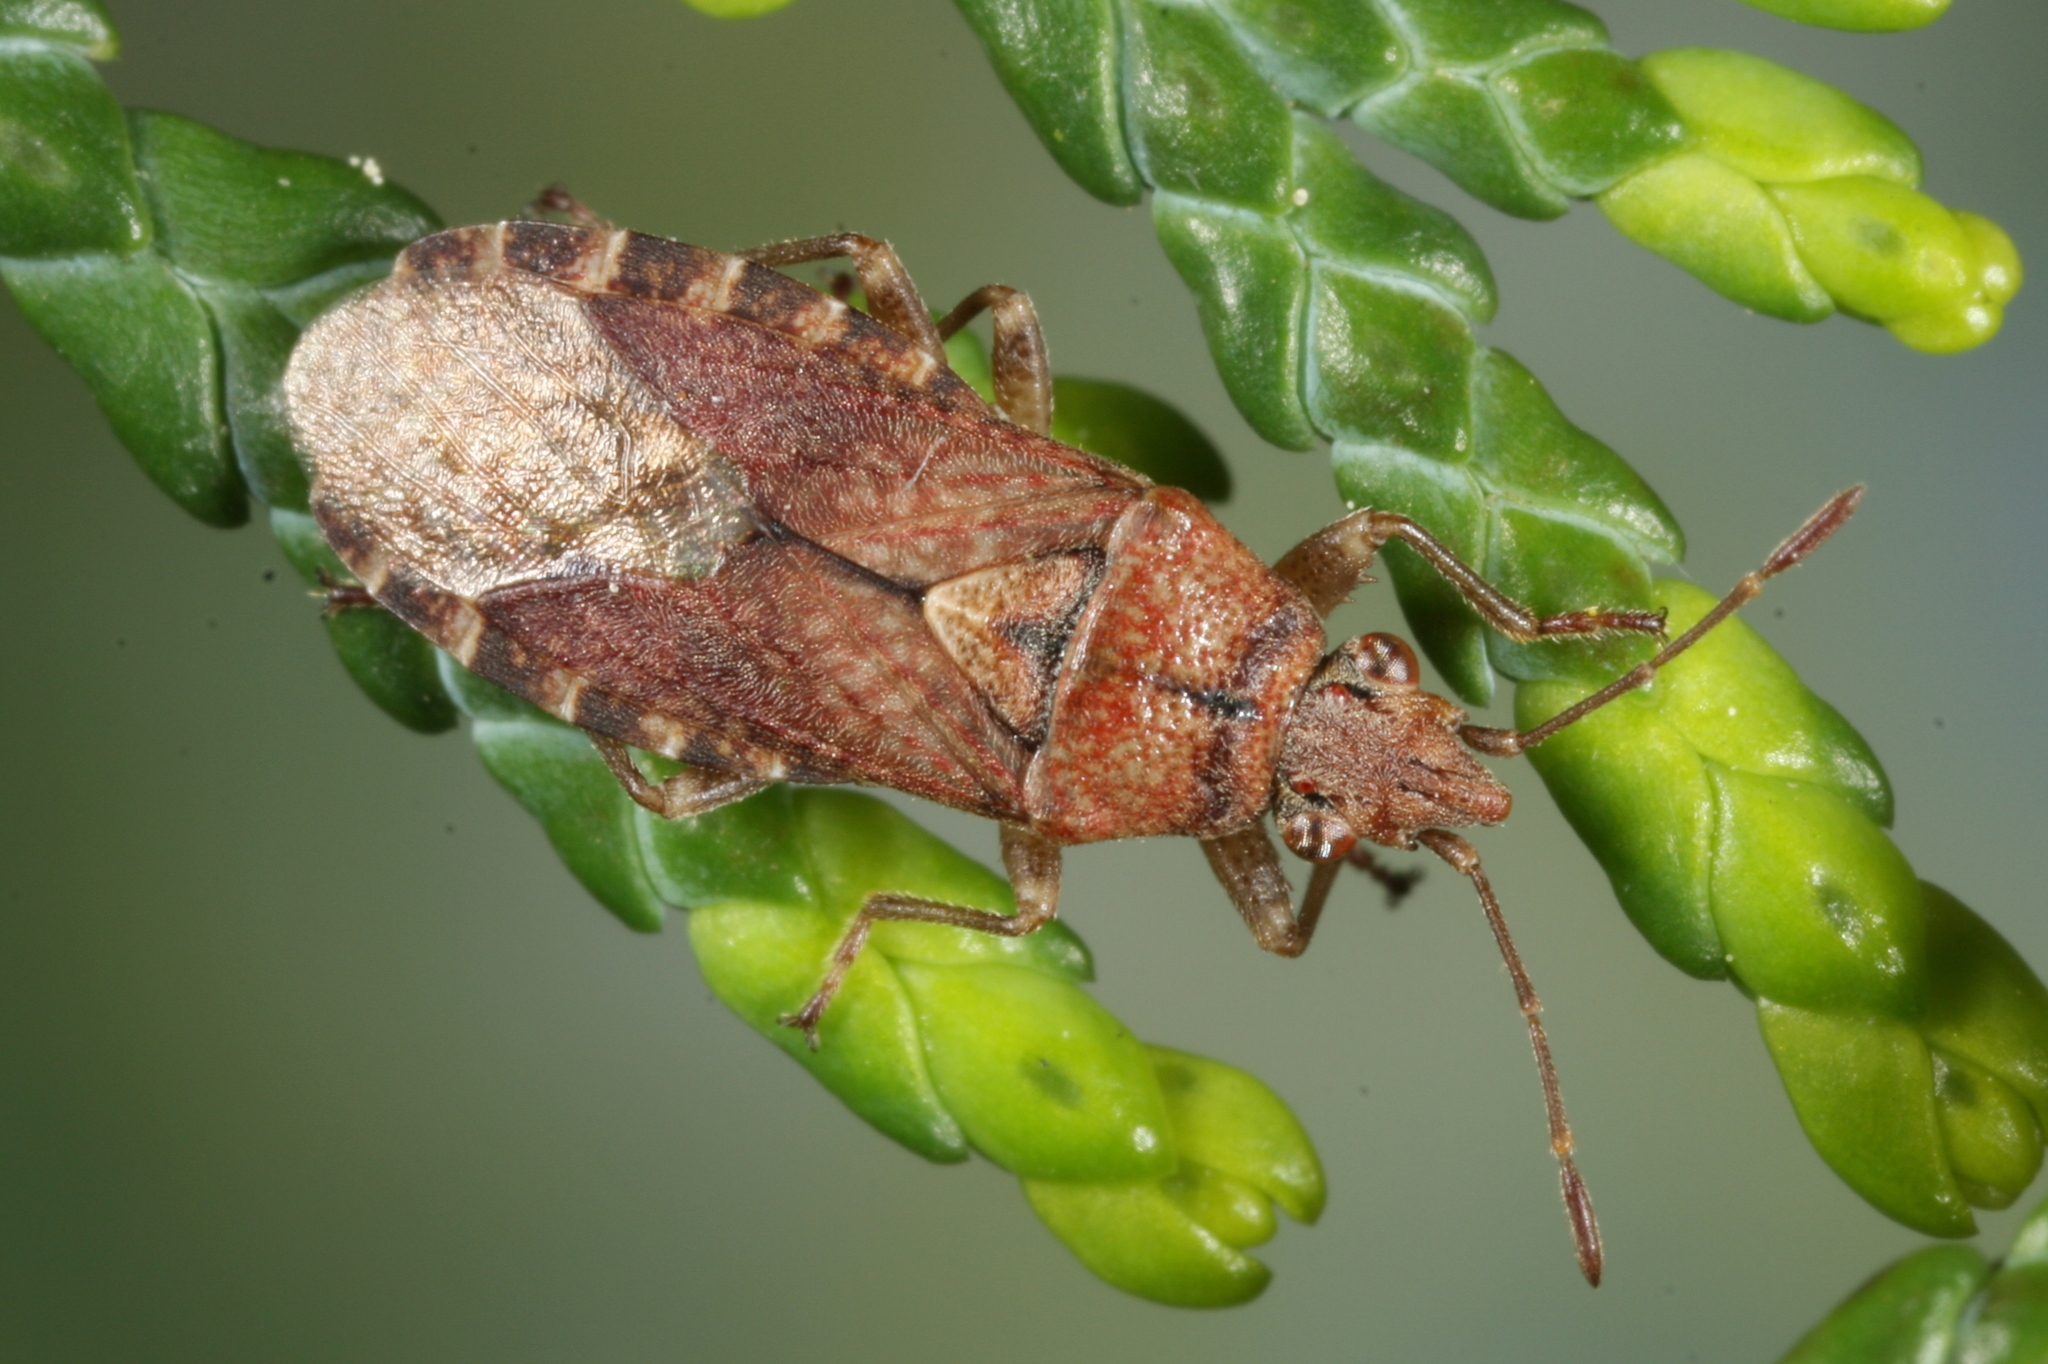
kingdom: Animalia
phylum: Arthropoda
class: Insecta
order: Hemiptera
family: Lygaeidae
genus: Orsillus
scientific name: Orsillus depressus
